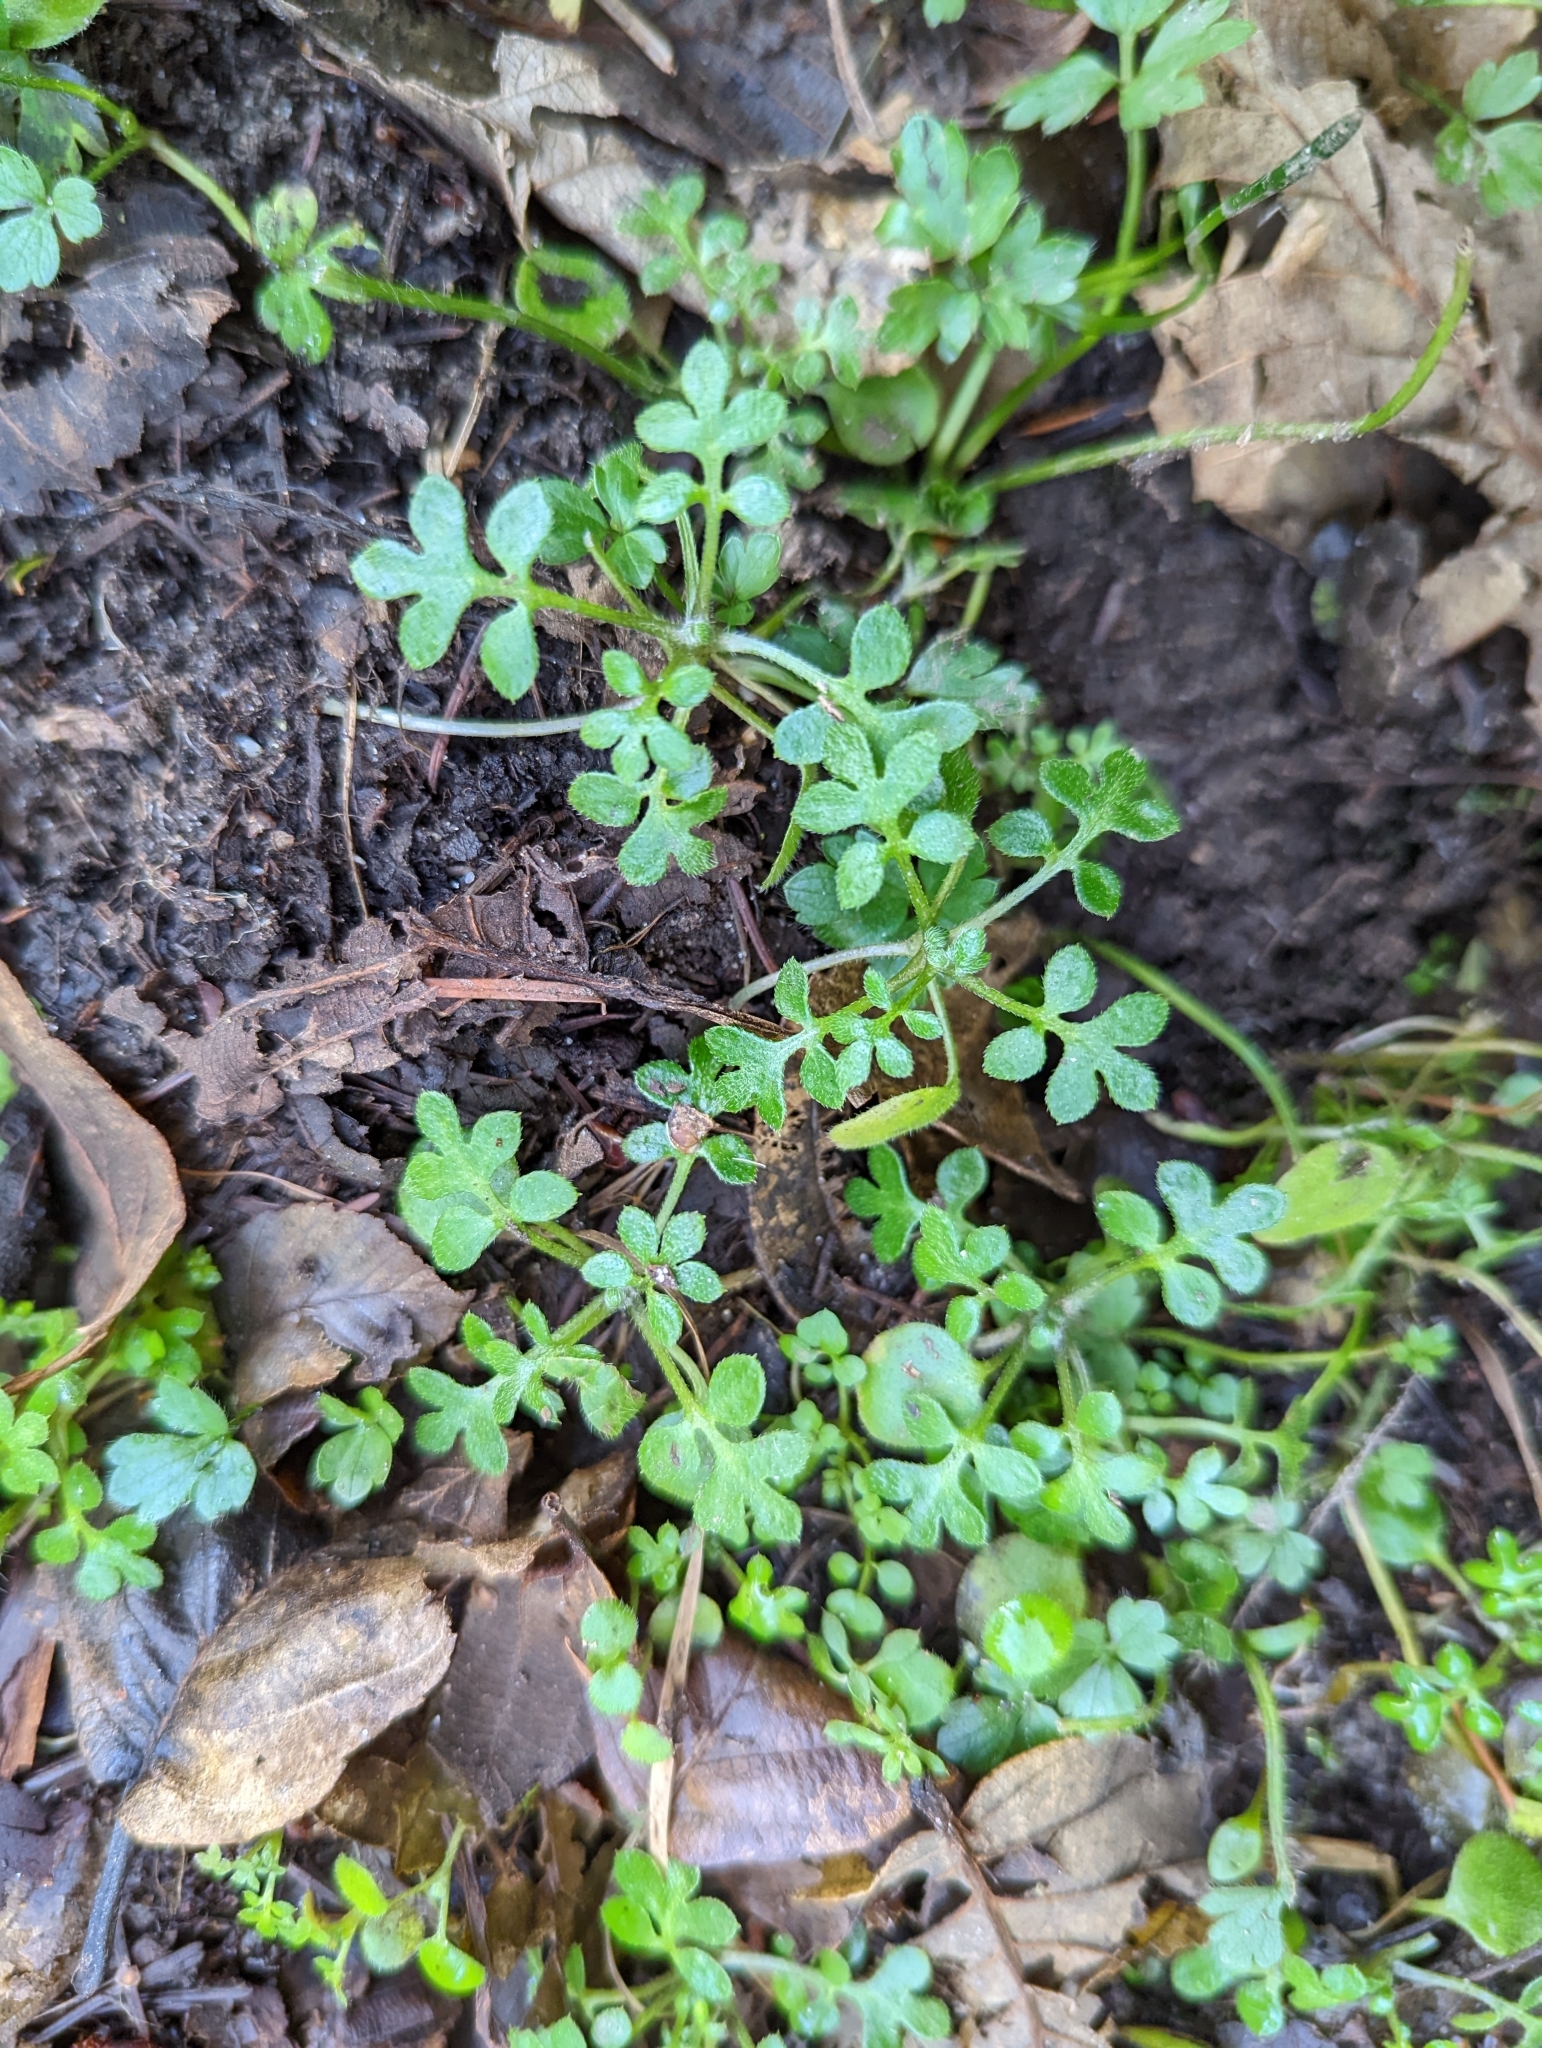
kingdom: Plantae
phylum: Tracheophyta
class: Magnoliopsida
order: Boraginales
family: Hydrophyllaceae
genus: Nemophila
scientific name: Nemophila parviflora
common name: Small-flowered baby-blue-eyes
